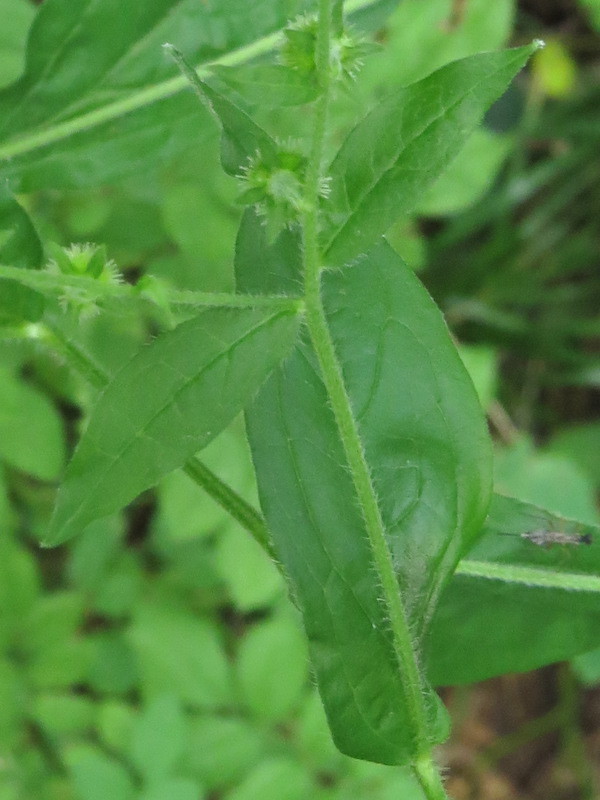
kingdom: Plantae
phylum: Tracheophyta
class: Magnoliopsida
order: Boraginales
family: Boraginaceae
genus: Hackelia
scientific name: Hackelia virginiana
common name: Beggar's-lice
